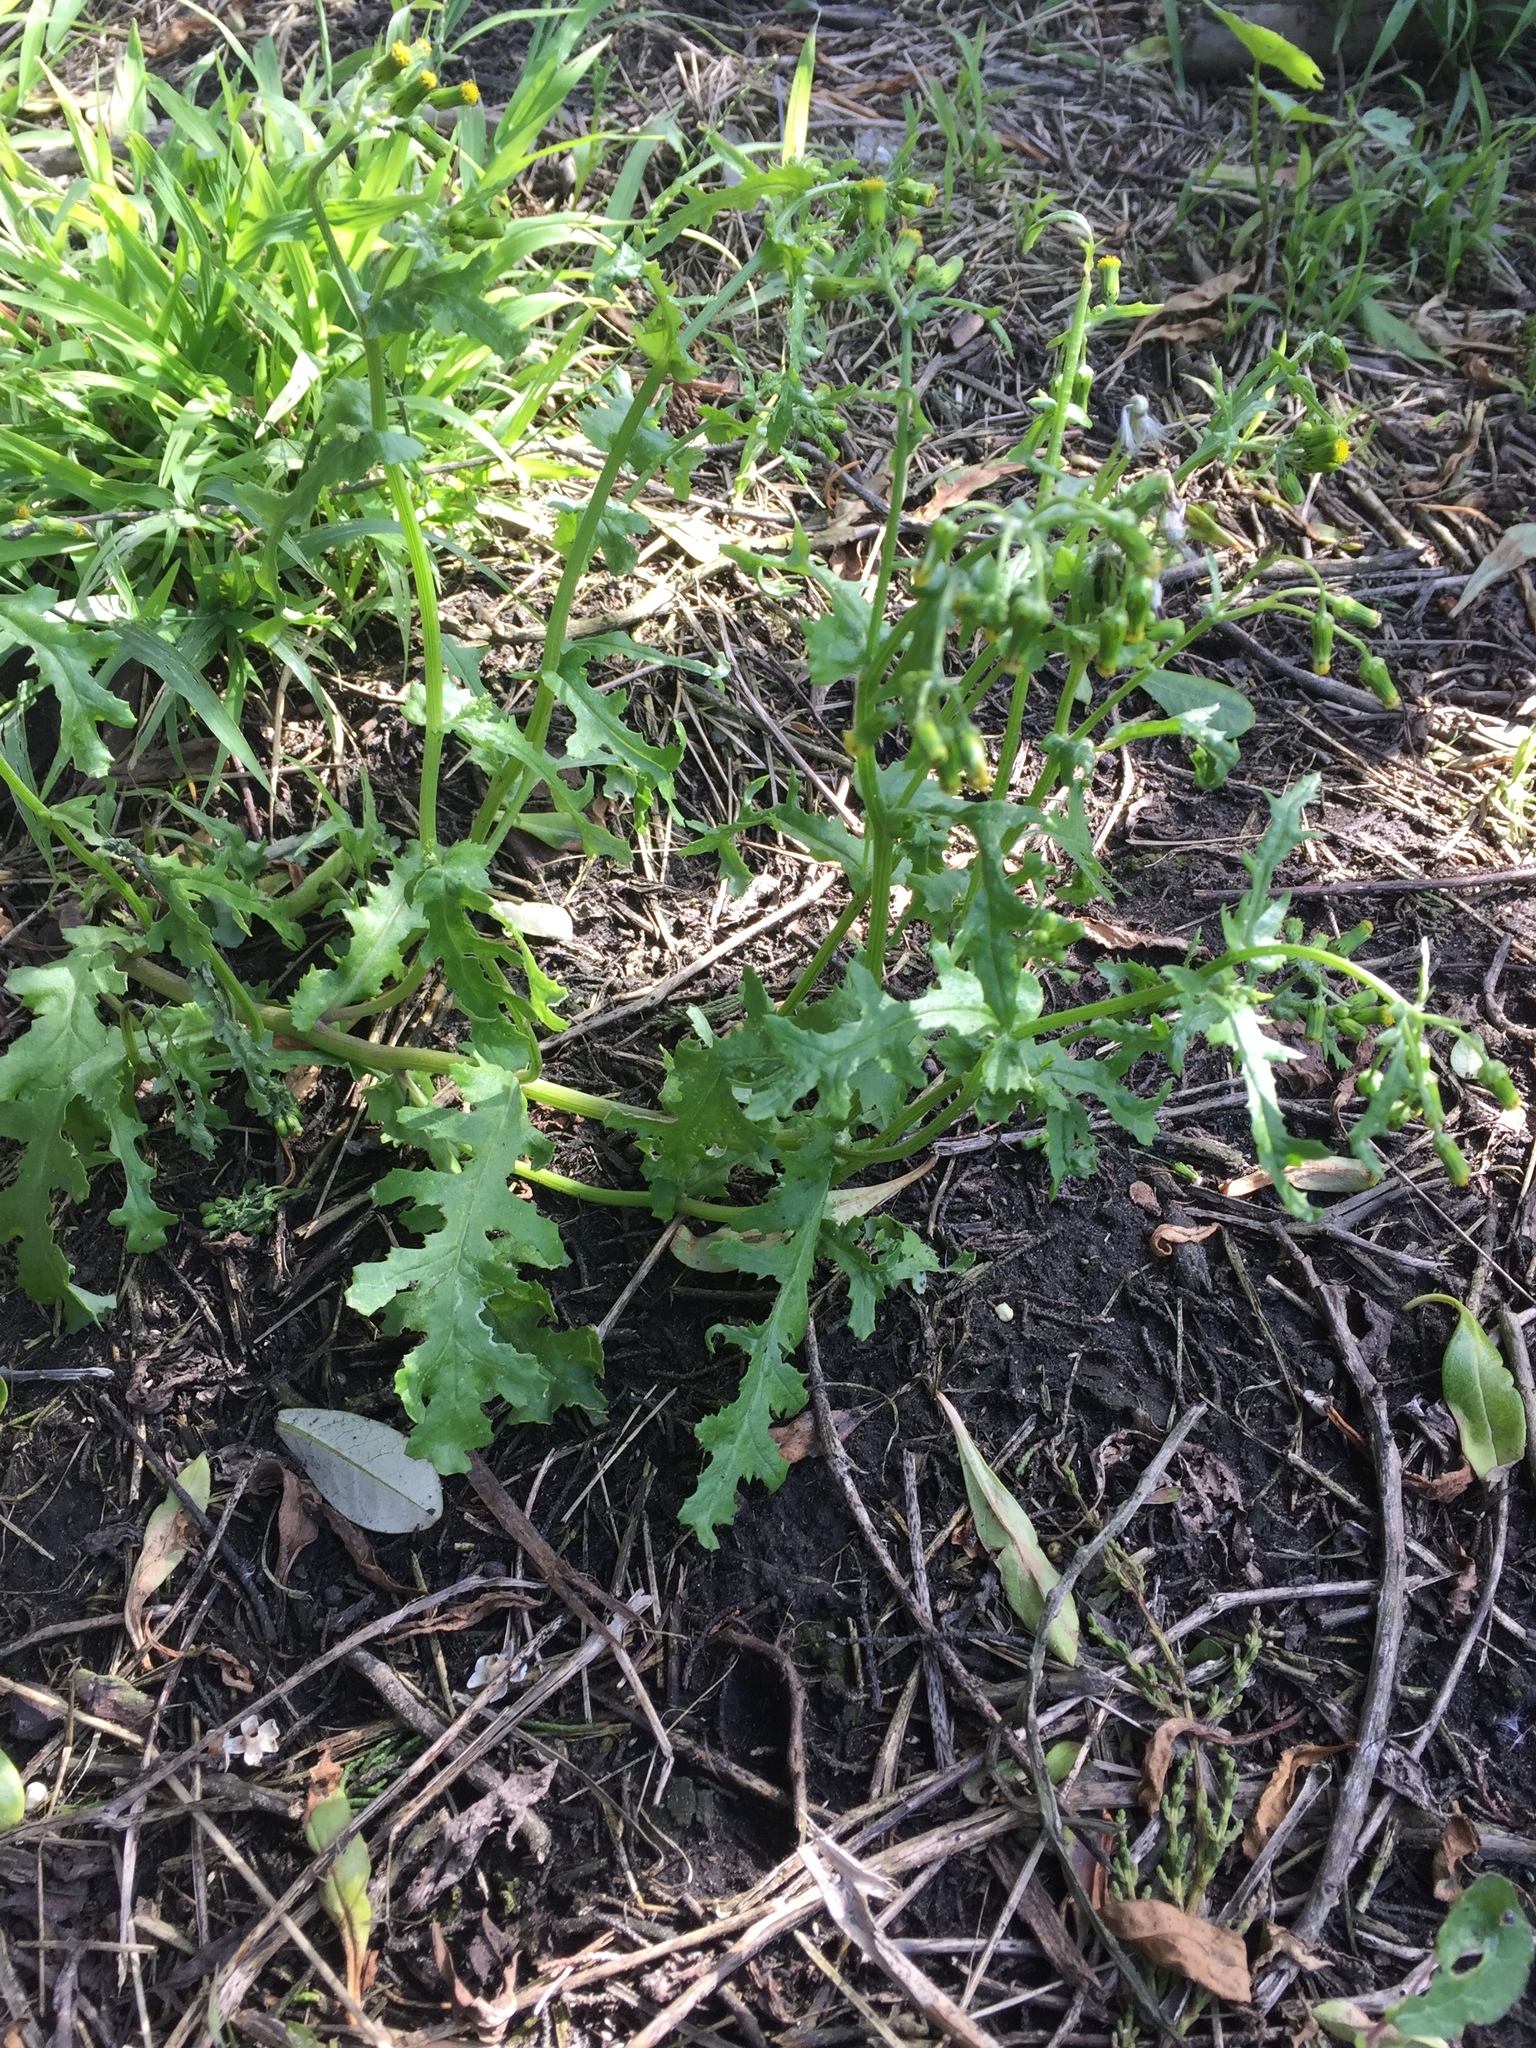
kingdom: Plantae
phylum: Tracheophyta
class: Magnoliopsida
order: Asterales
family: Asteraceae
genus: Senecio
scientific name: Senecio vulgaris
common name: Old-man-in-the-spring
